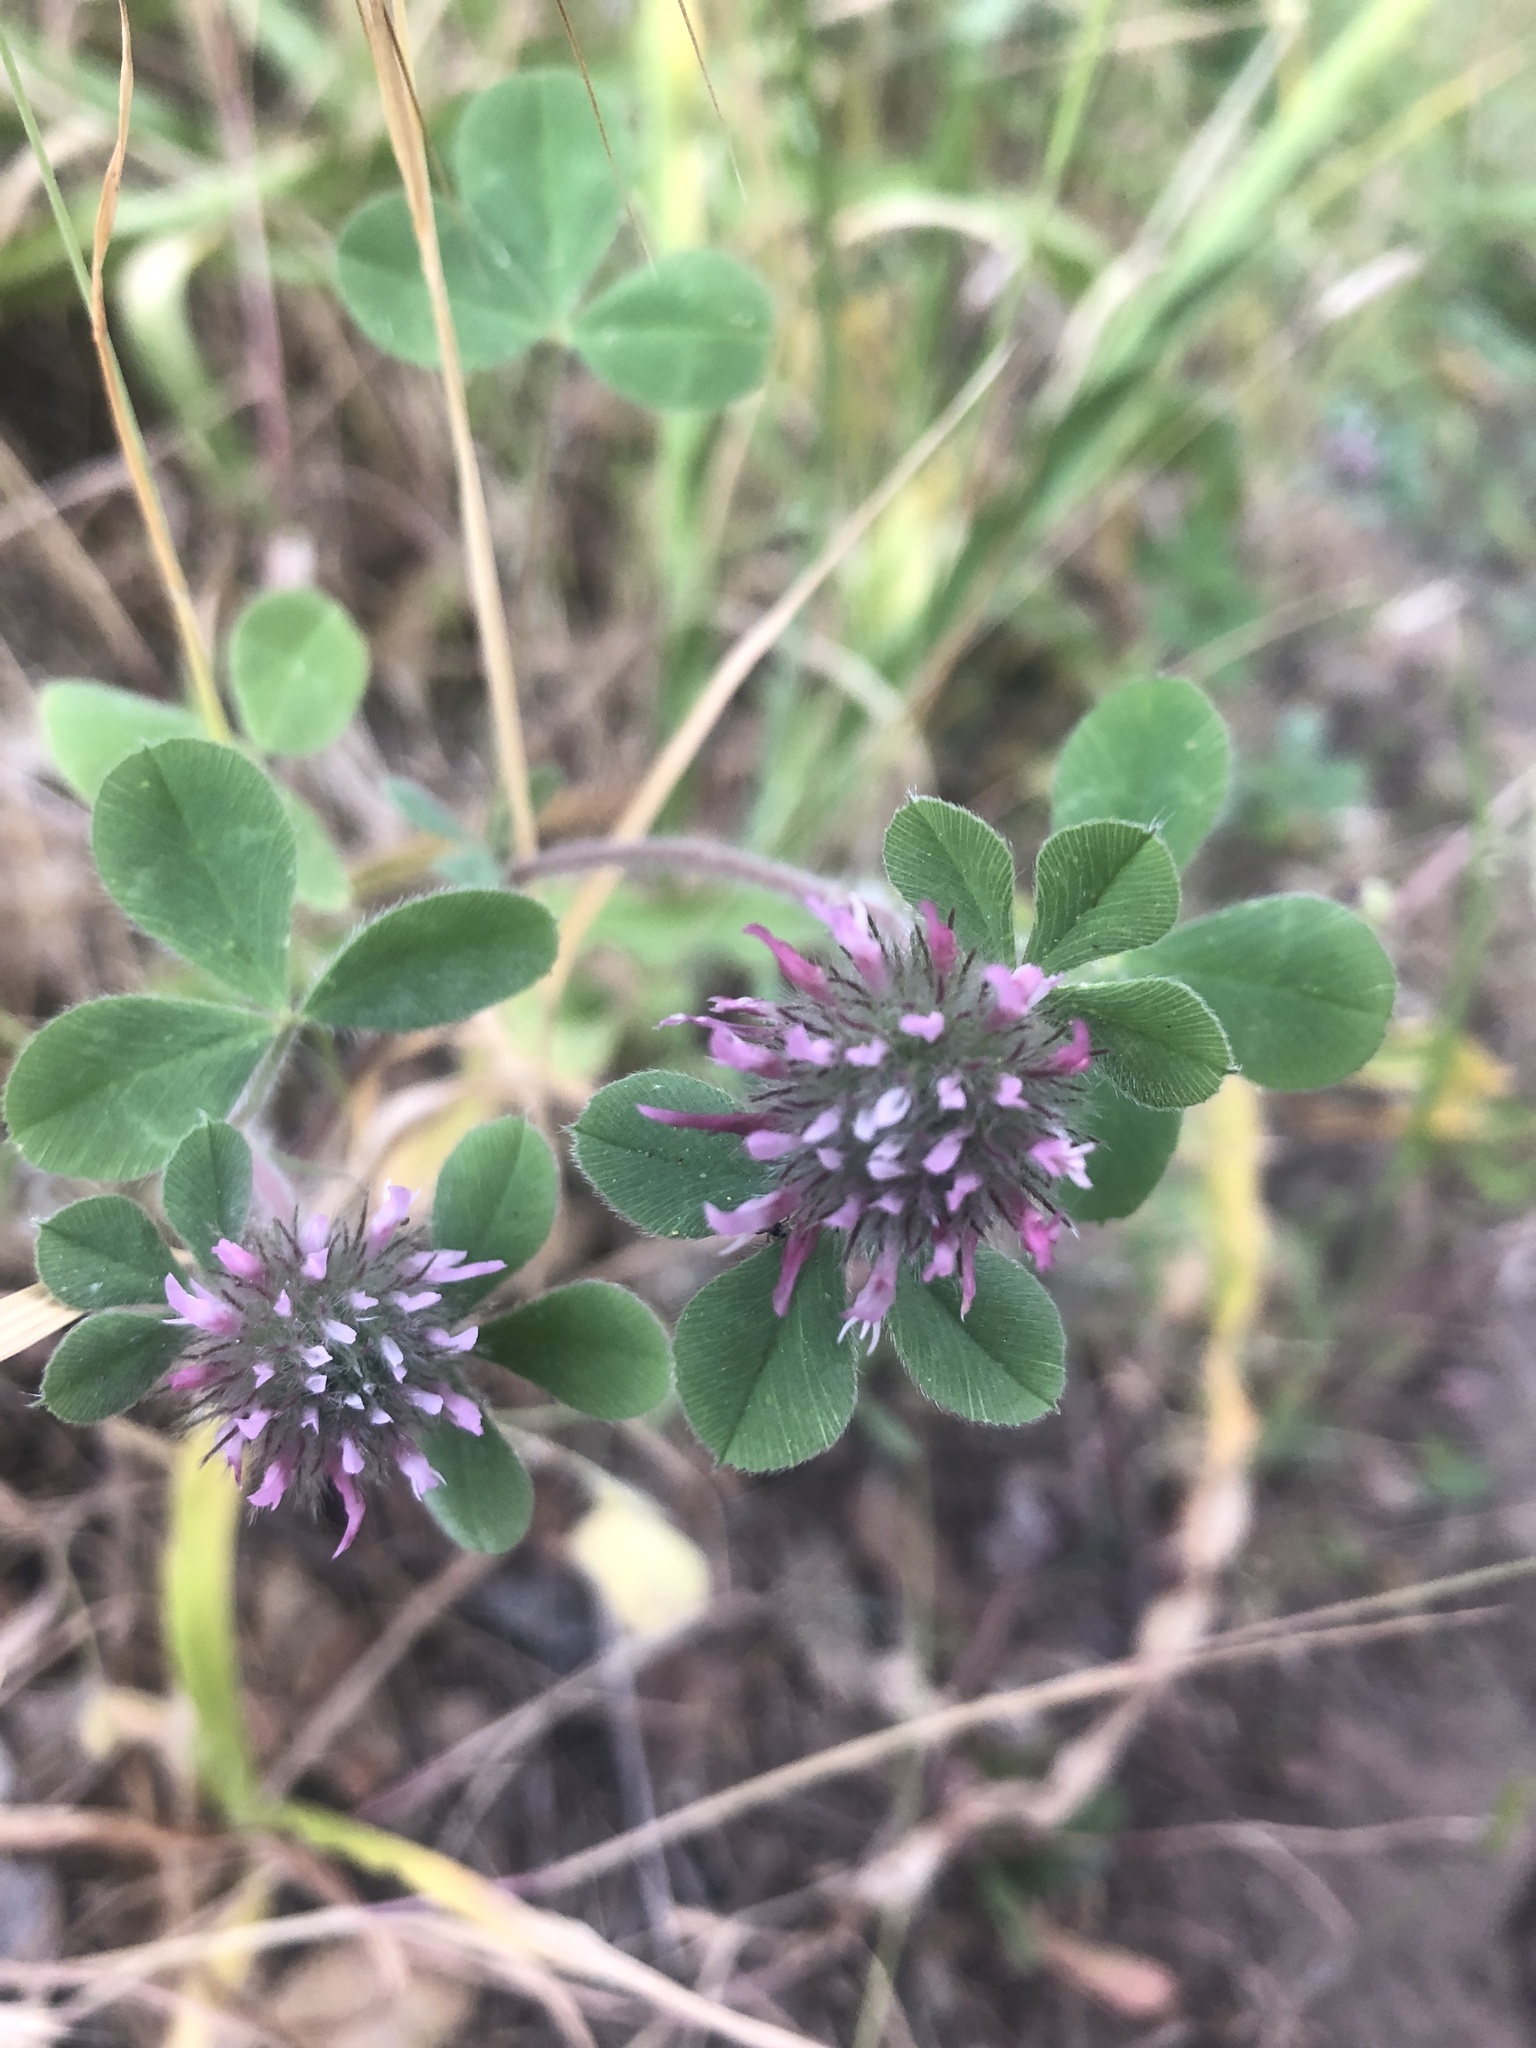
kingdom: Plantae
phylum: Tracheophyta
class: Magnoliopsida
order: Fabales
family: Fabaceae
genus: Trifolium
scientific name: Trifolium hirtum
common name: Rose clover
